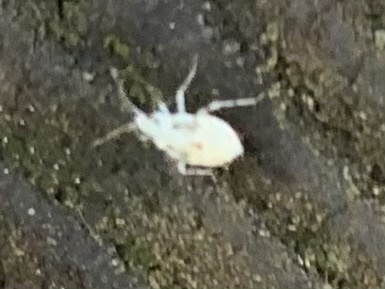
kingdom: Animalia
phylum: Arthropoda
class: Insecta
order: Hemiptera
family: Miridae
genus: Deraeocoris
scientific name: Deraeocoris lutescens
